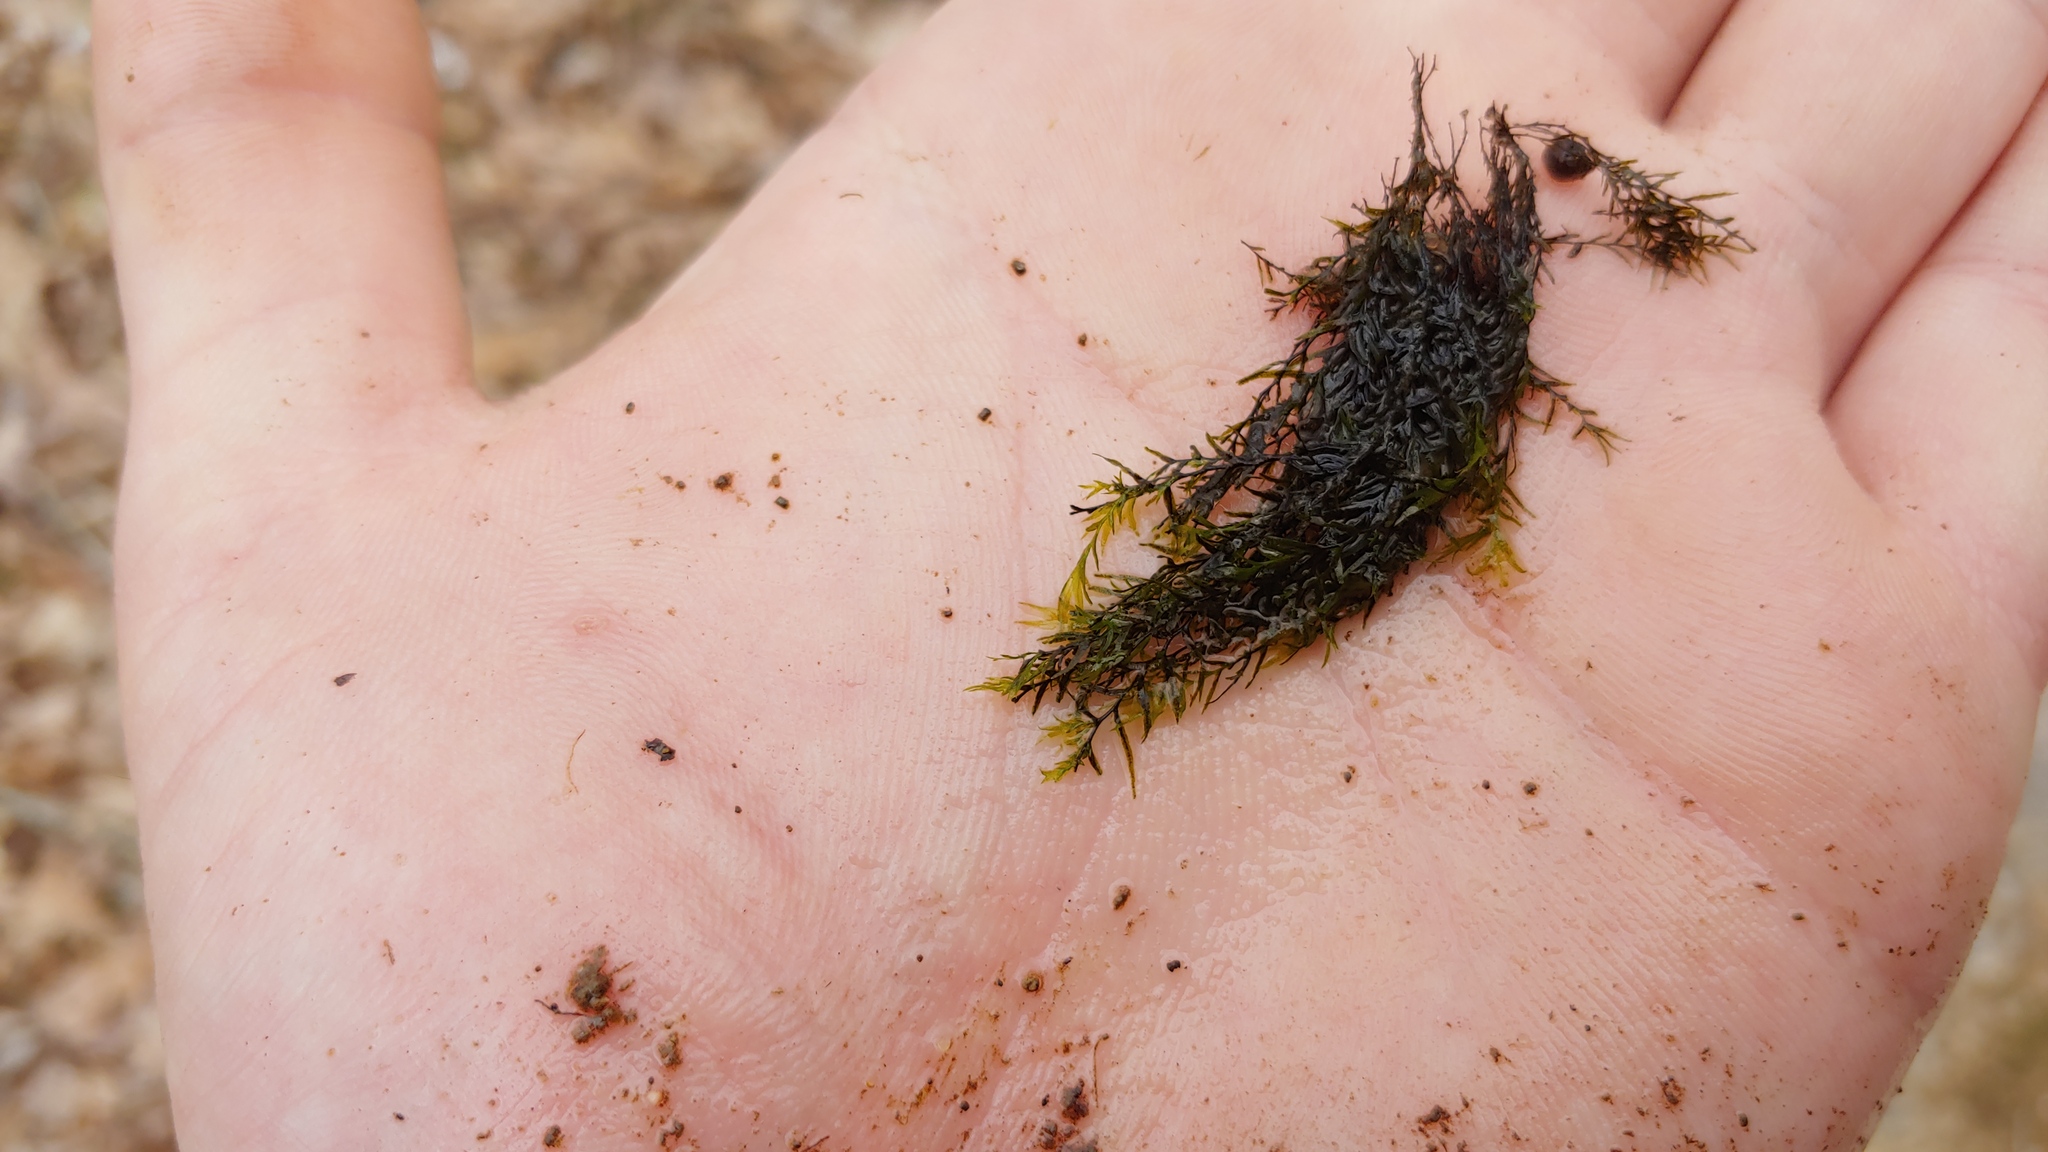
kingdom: Plantae
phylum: Bryophyta
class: Bryopsida
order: Dicranales
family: Fissidentaceae
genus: Fissidens
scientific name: Fissidens fontanus
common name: Fountain pocket-moss
